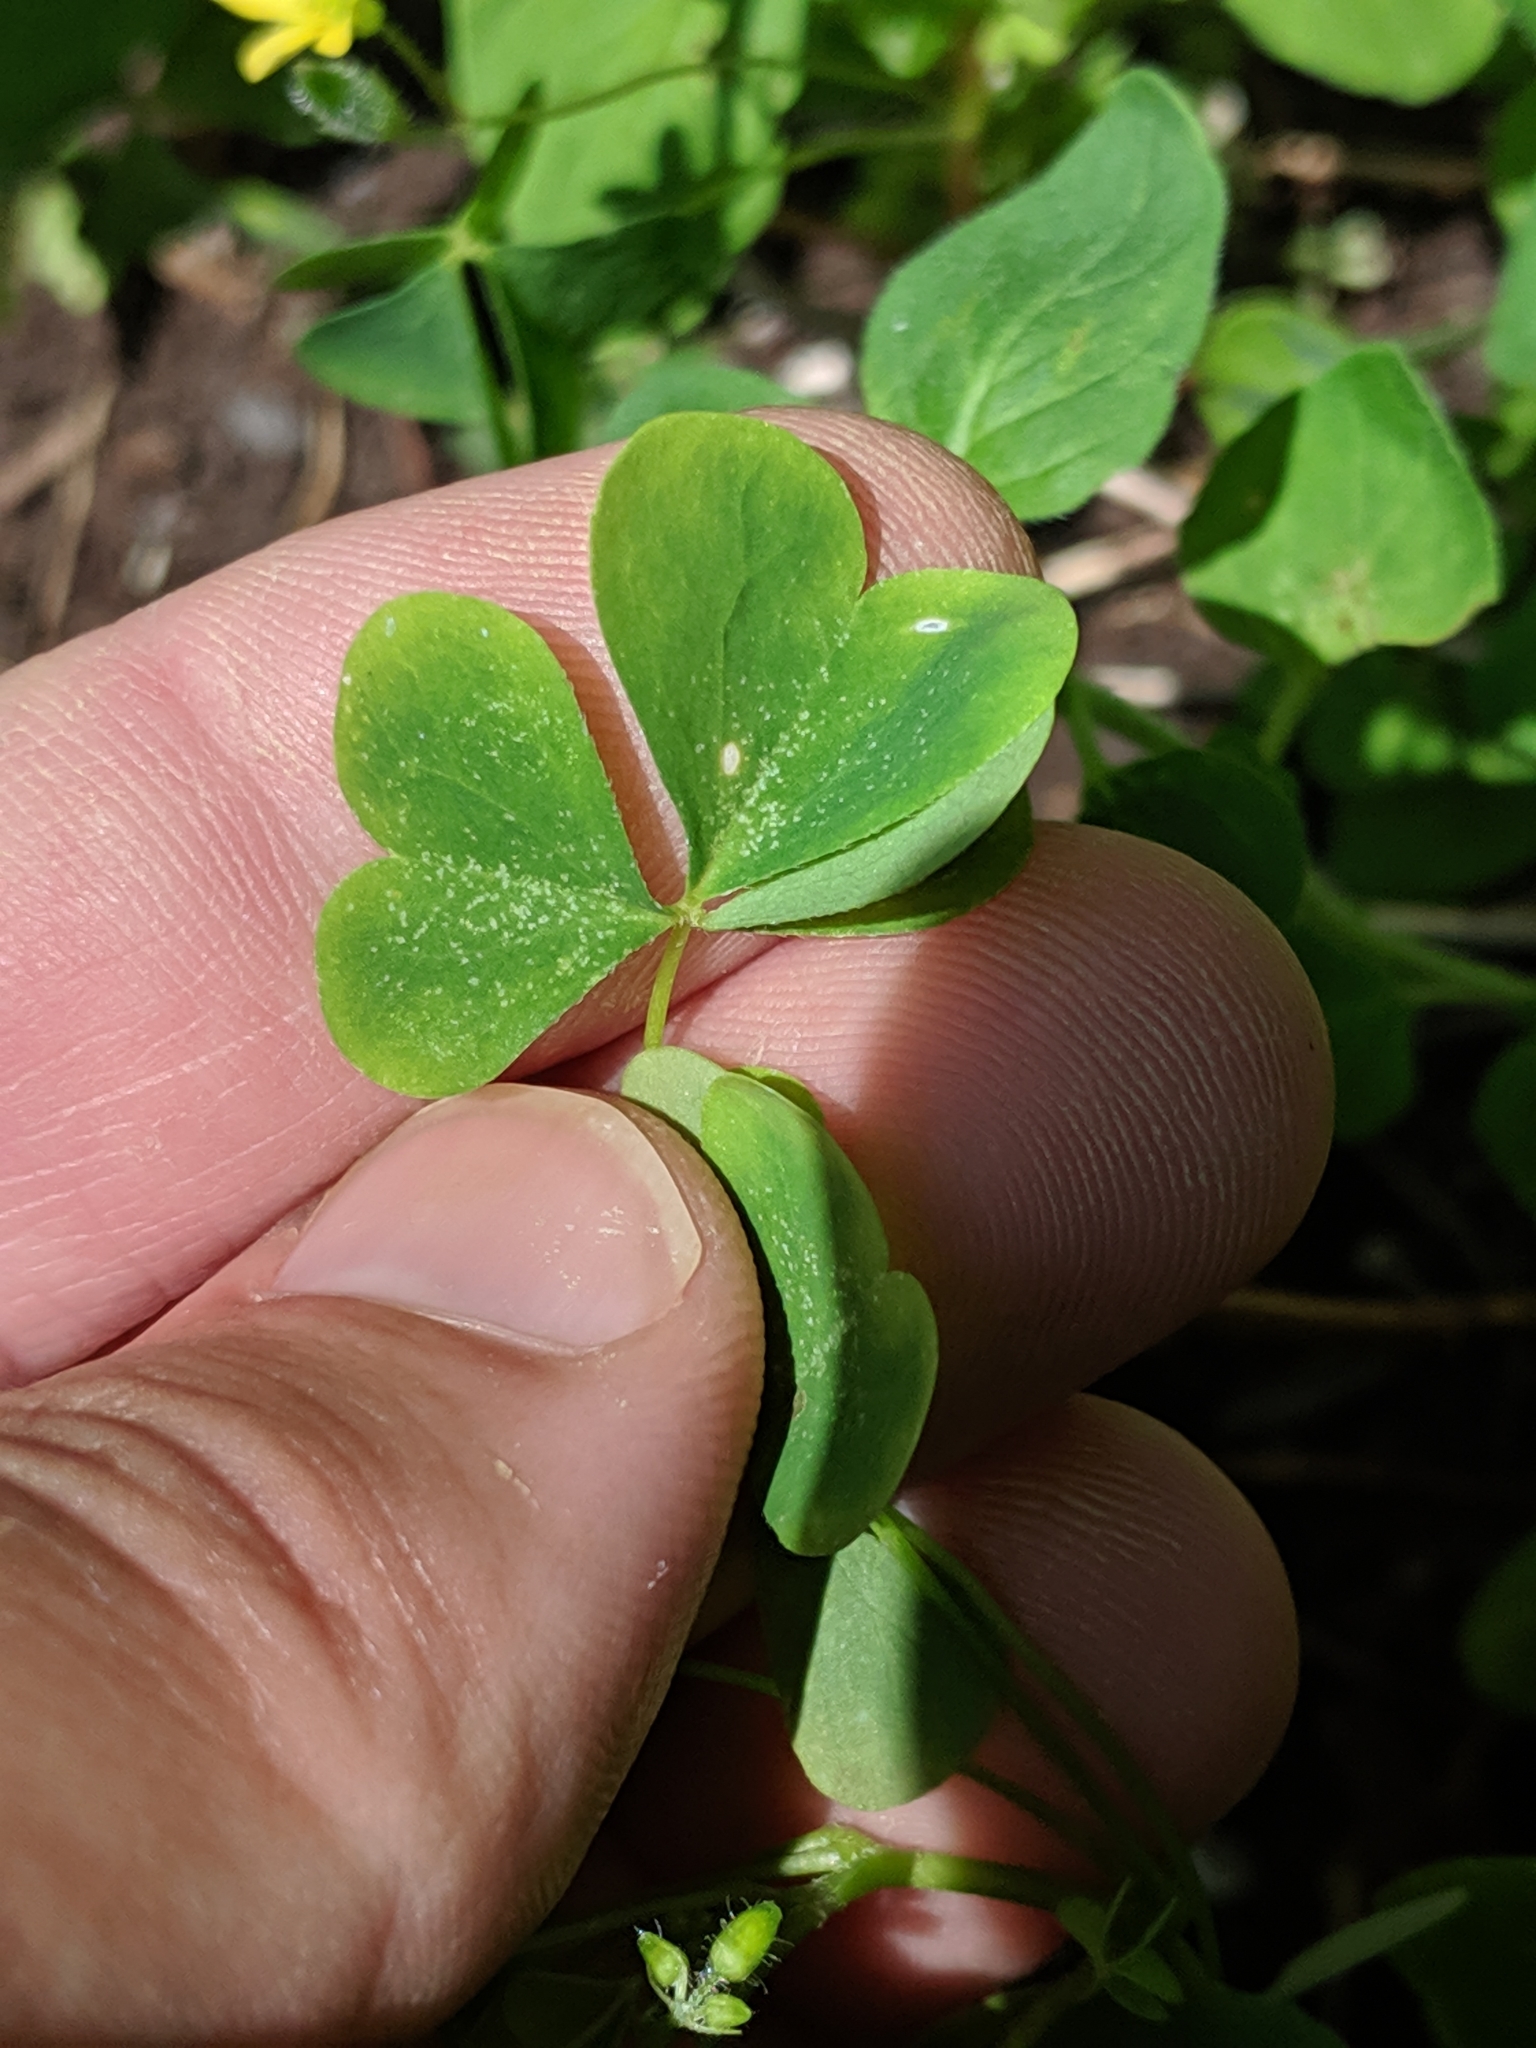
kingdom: Plantae
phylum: Tracheophyta
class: Magnoliopsida
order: Oxalidales
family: Oxalidaceae
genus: Oxalis
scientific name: Oxalis stricta
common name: Upright yellow-sorrel
